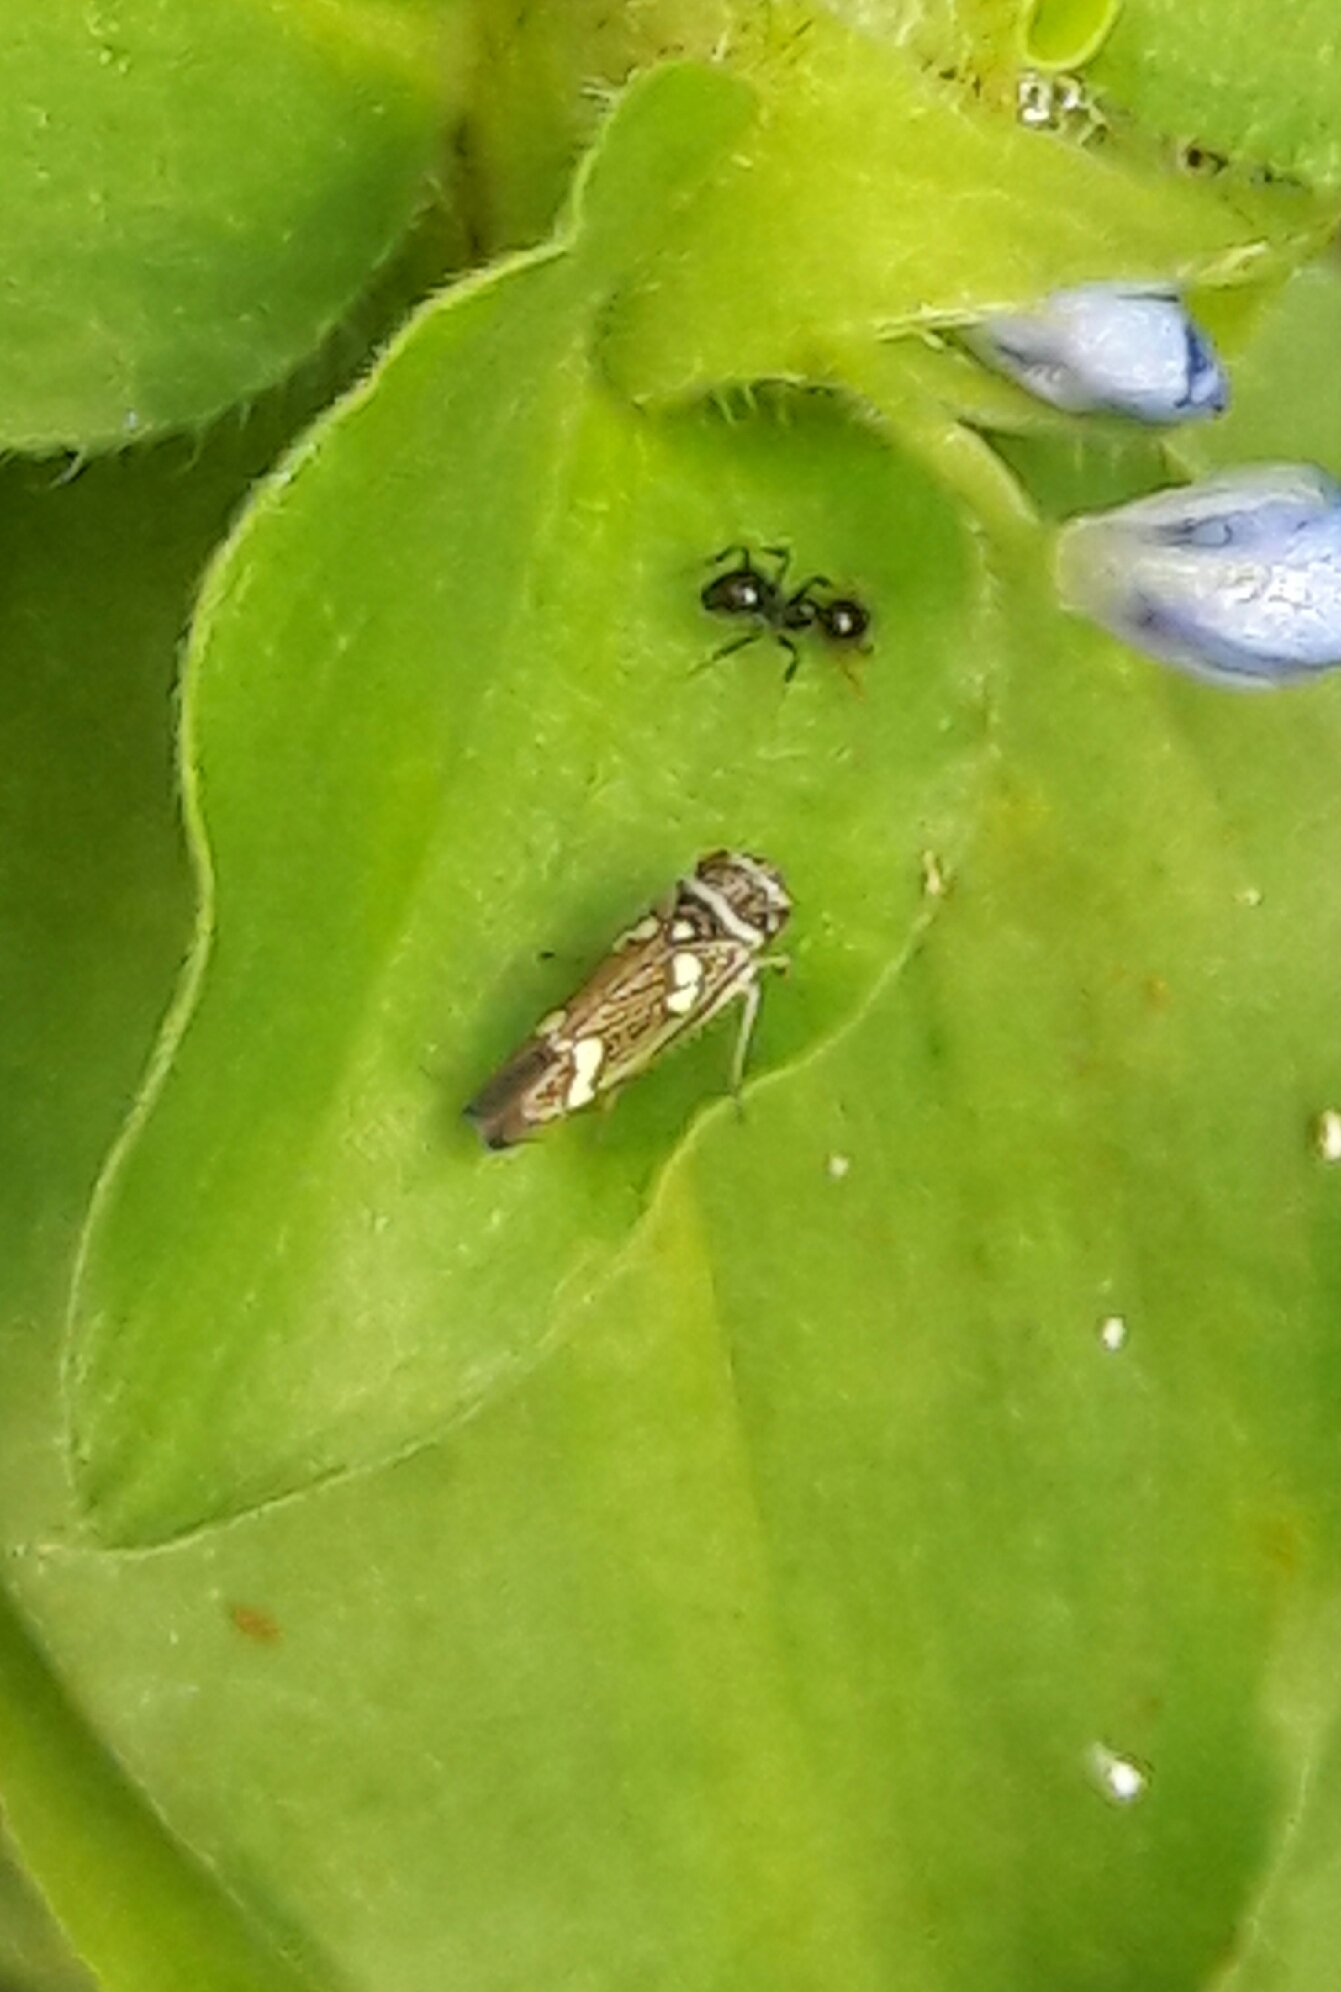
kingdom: Animalia
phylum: Arthropoda
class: Insecta
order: Hemiptera
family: Cicadellidae
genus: Macugonalia
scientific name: Macugonalia leucomelas
